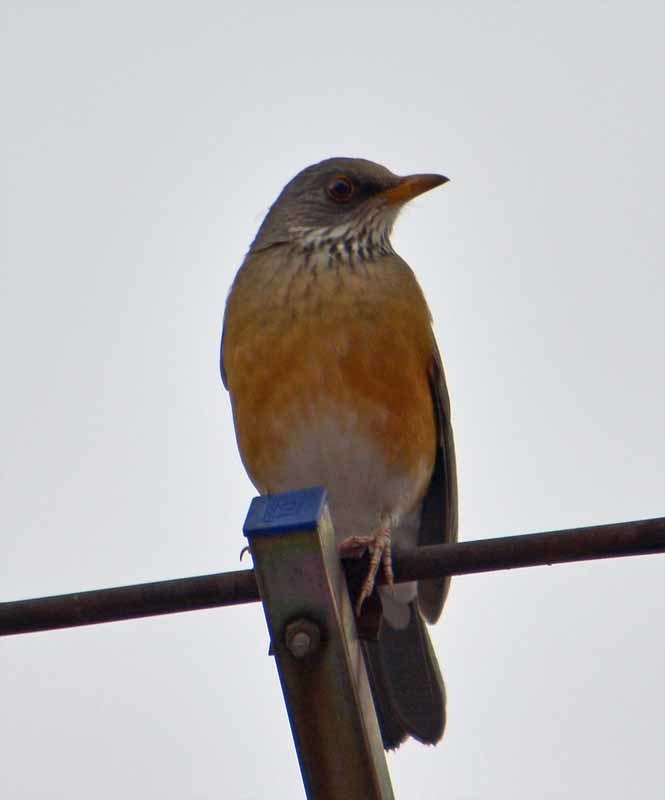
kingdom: Animalia
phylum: Chordata
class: Aves
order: Passeriformes
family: Turdidae
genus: Turdus
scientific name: Turdus rufopalliatus
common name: Rufous-backed robin
